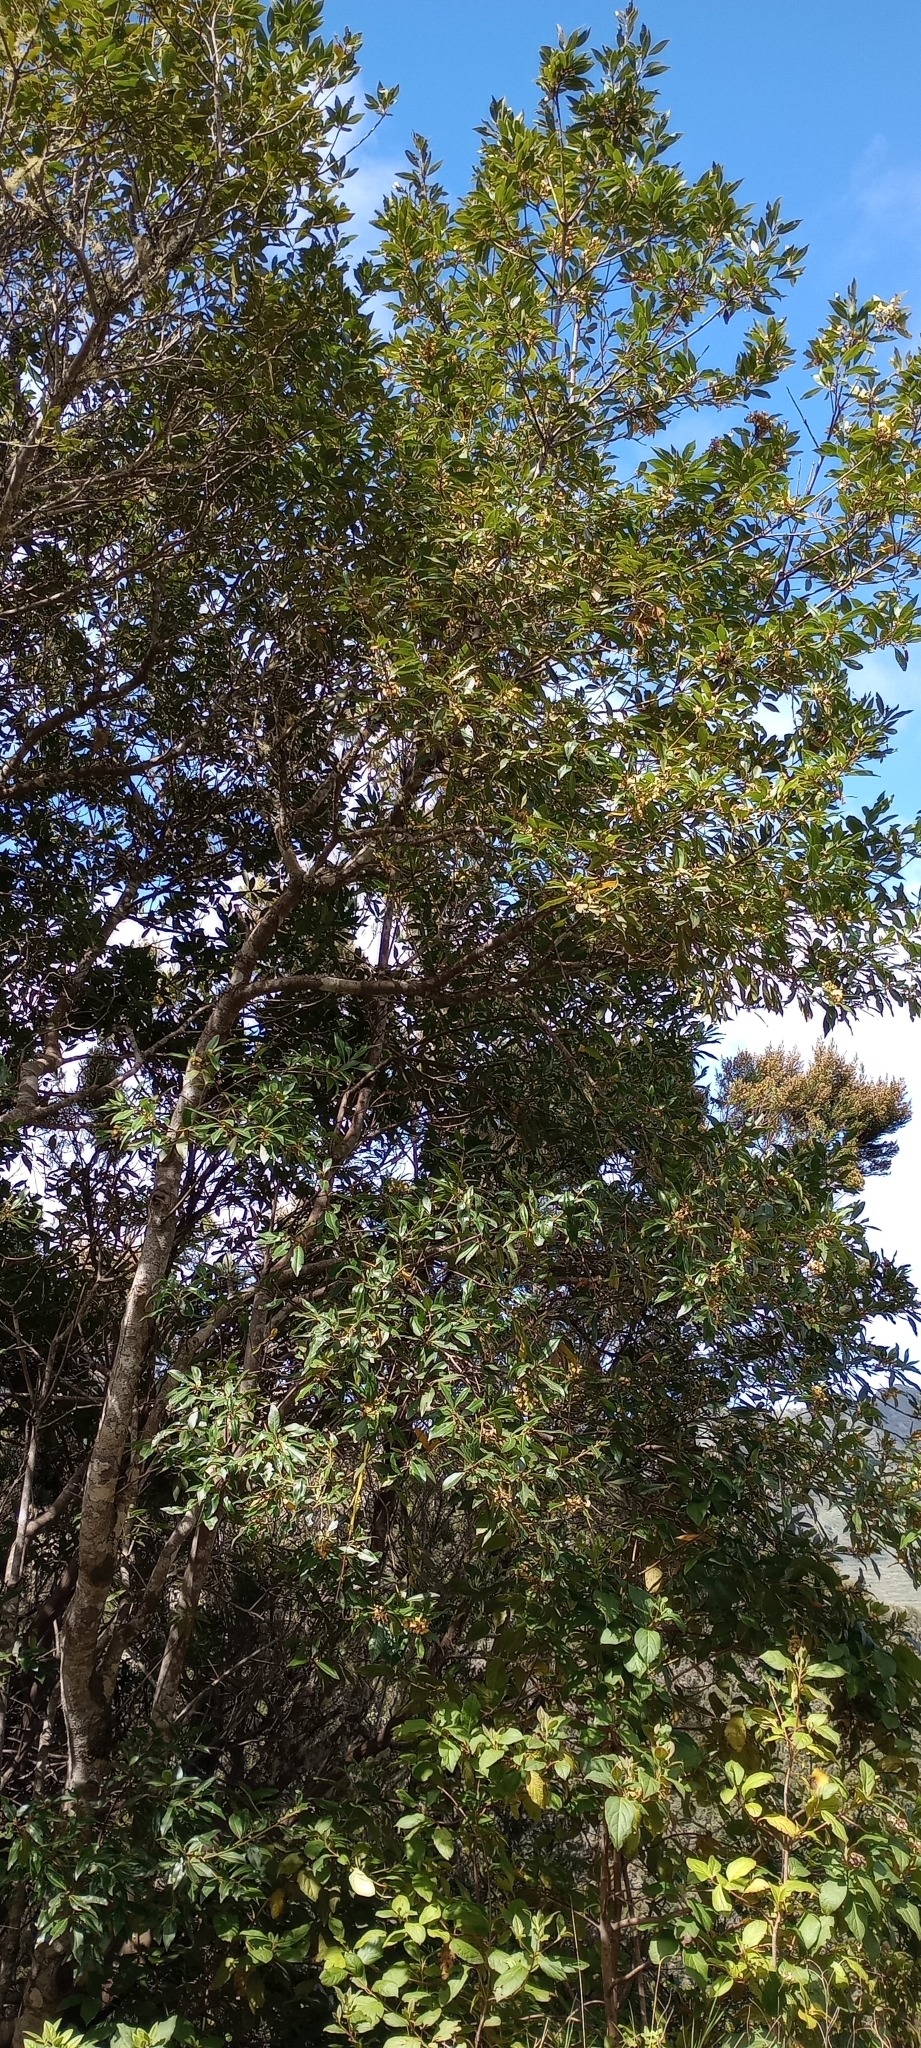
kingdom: Plantae
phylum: Tracheophyta
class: Magnoliopsida
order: Laurales
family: Lauraceae
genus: Laurus
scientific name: Laurus novocanariensis
